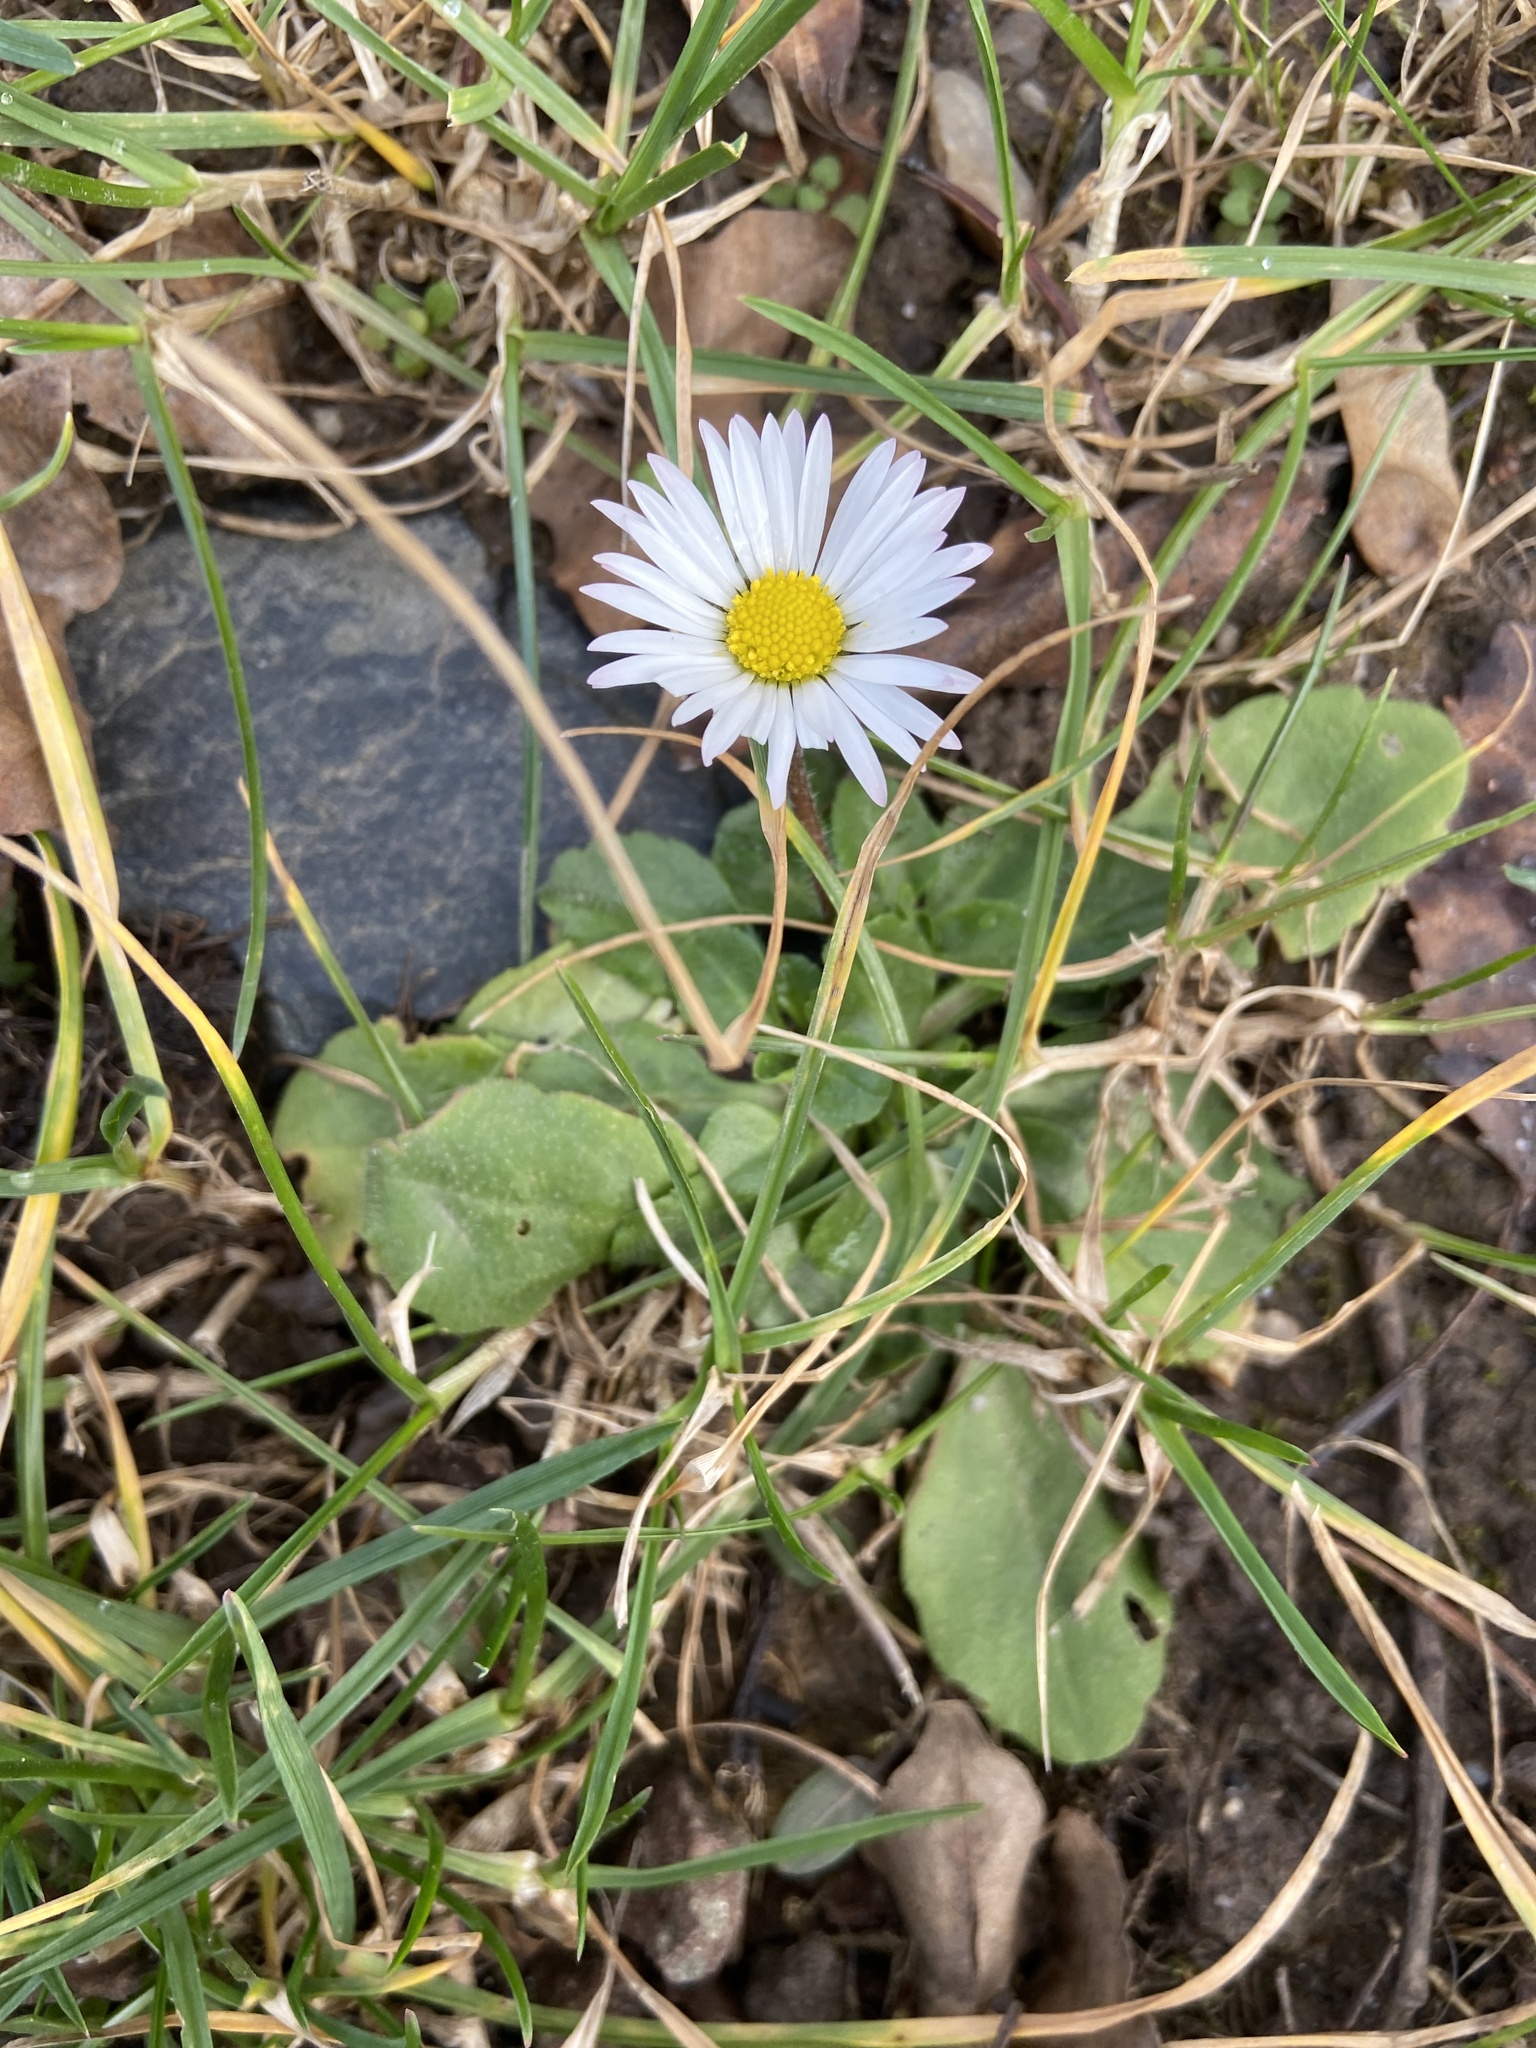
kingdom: Plantae
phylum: Tracheophyta
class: Magnoliopsida
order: Asterales
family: Asteraceae
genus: Bellis
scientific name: Bellis perennis
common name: Lawndaisy
